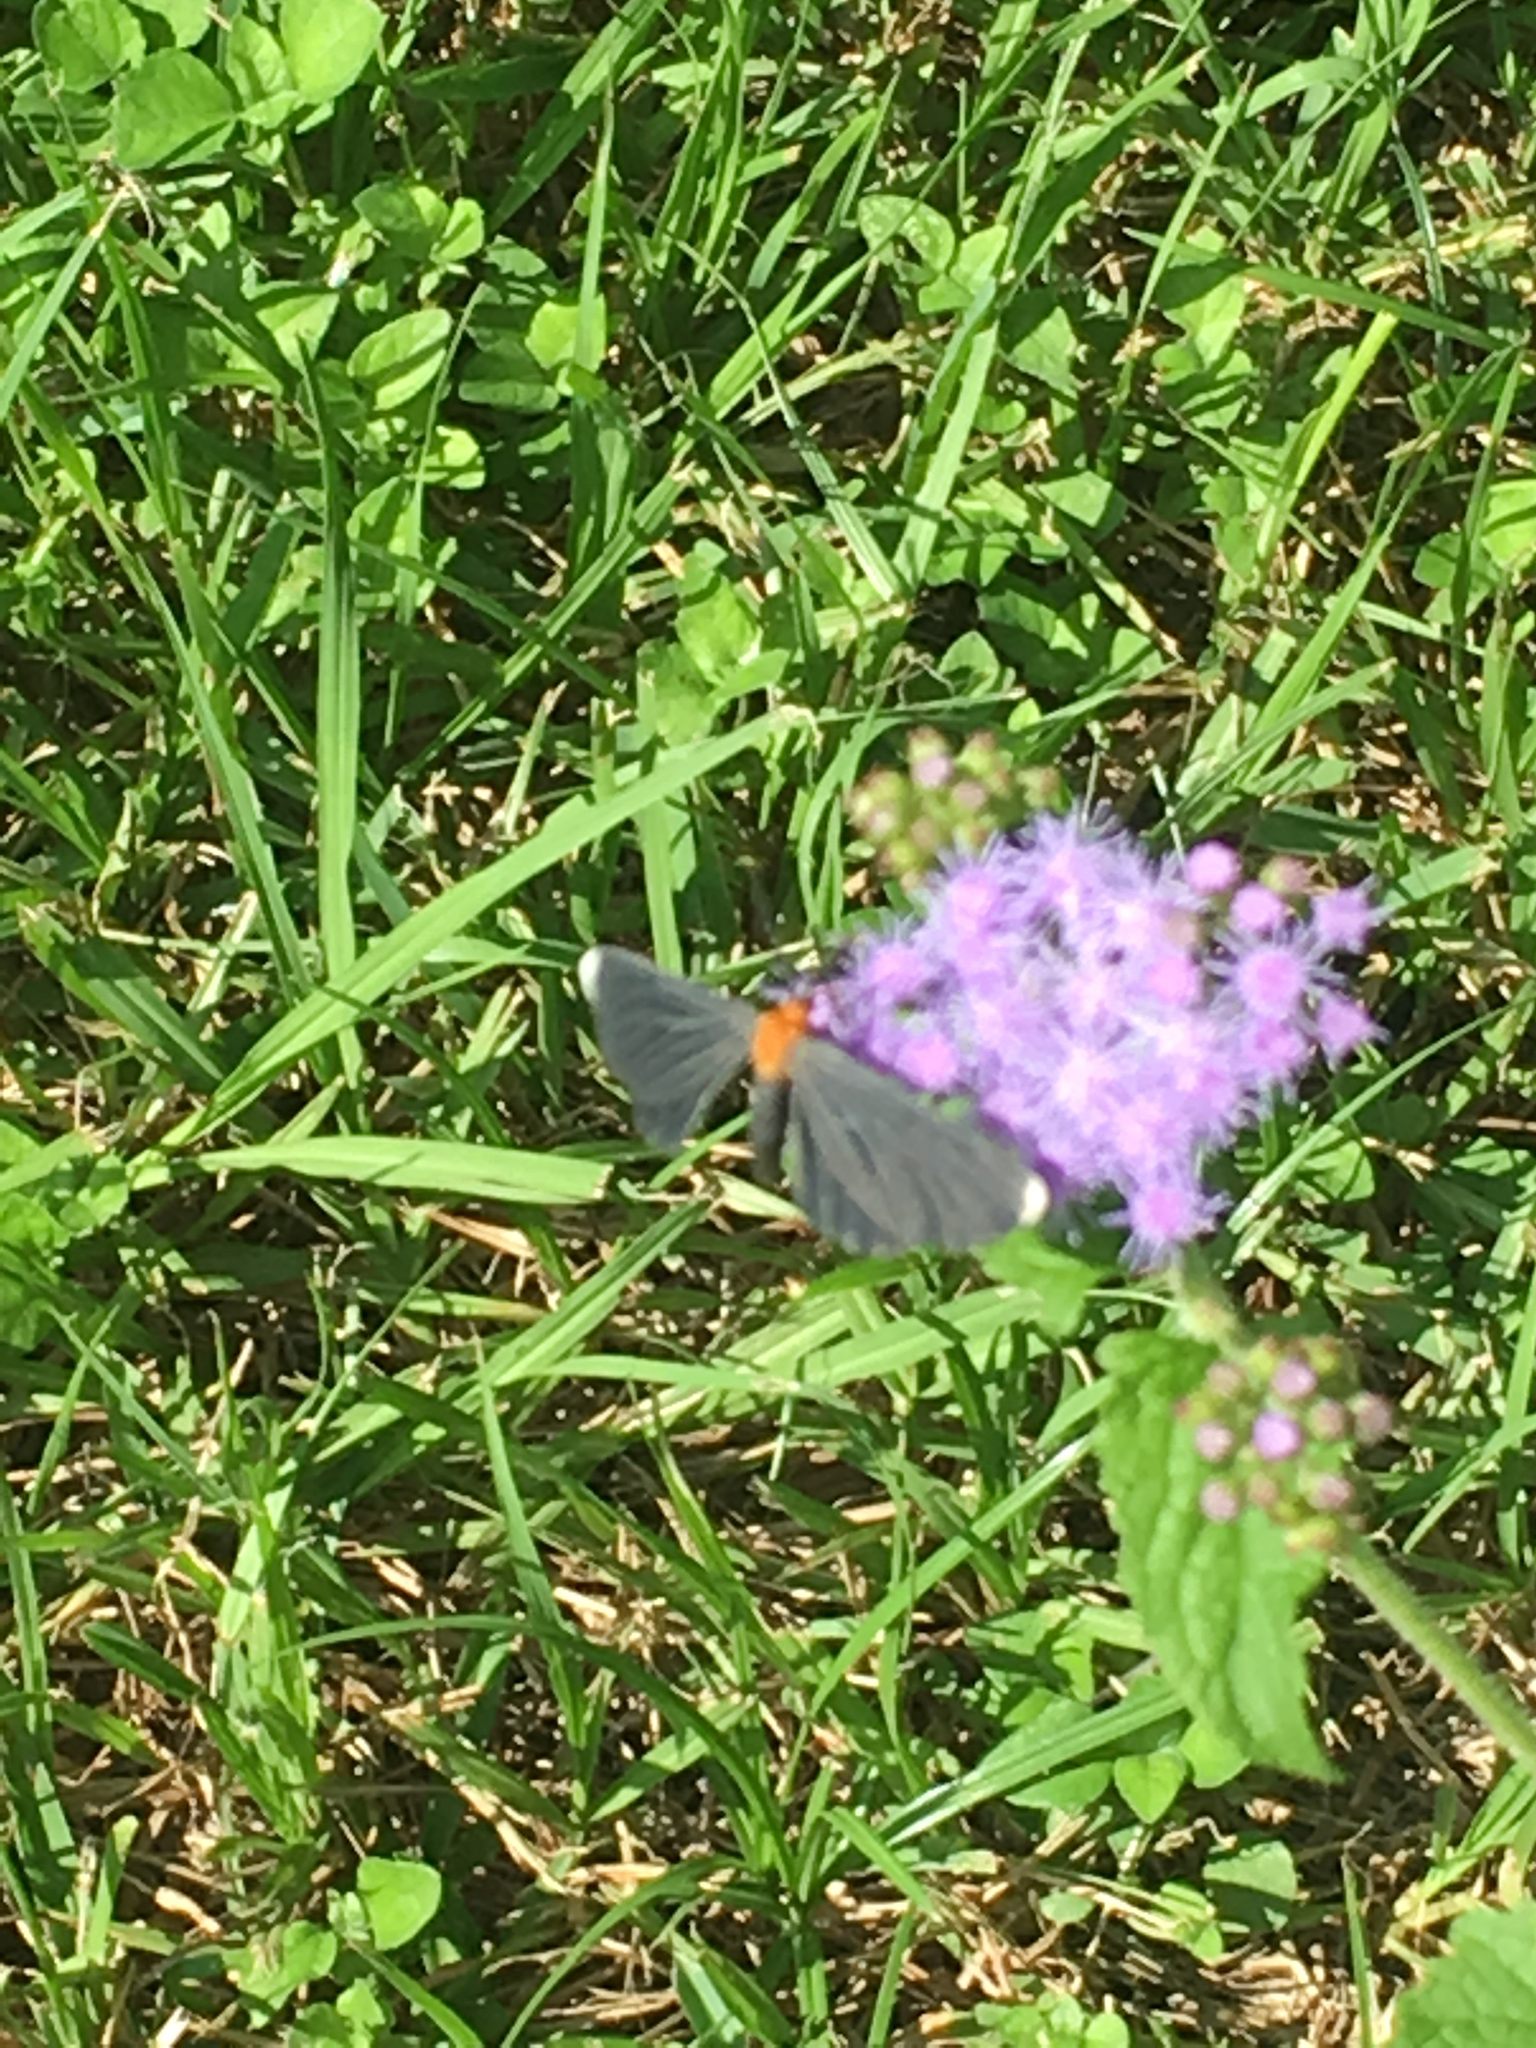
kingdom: Animalia
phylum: Arthropoda
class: Insecta
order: Lepidoptera
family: Geometridae
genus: Melanchroia
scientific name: Melanchroia chephise
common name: White-tipped black
